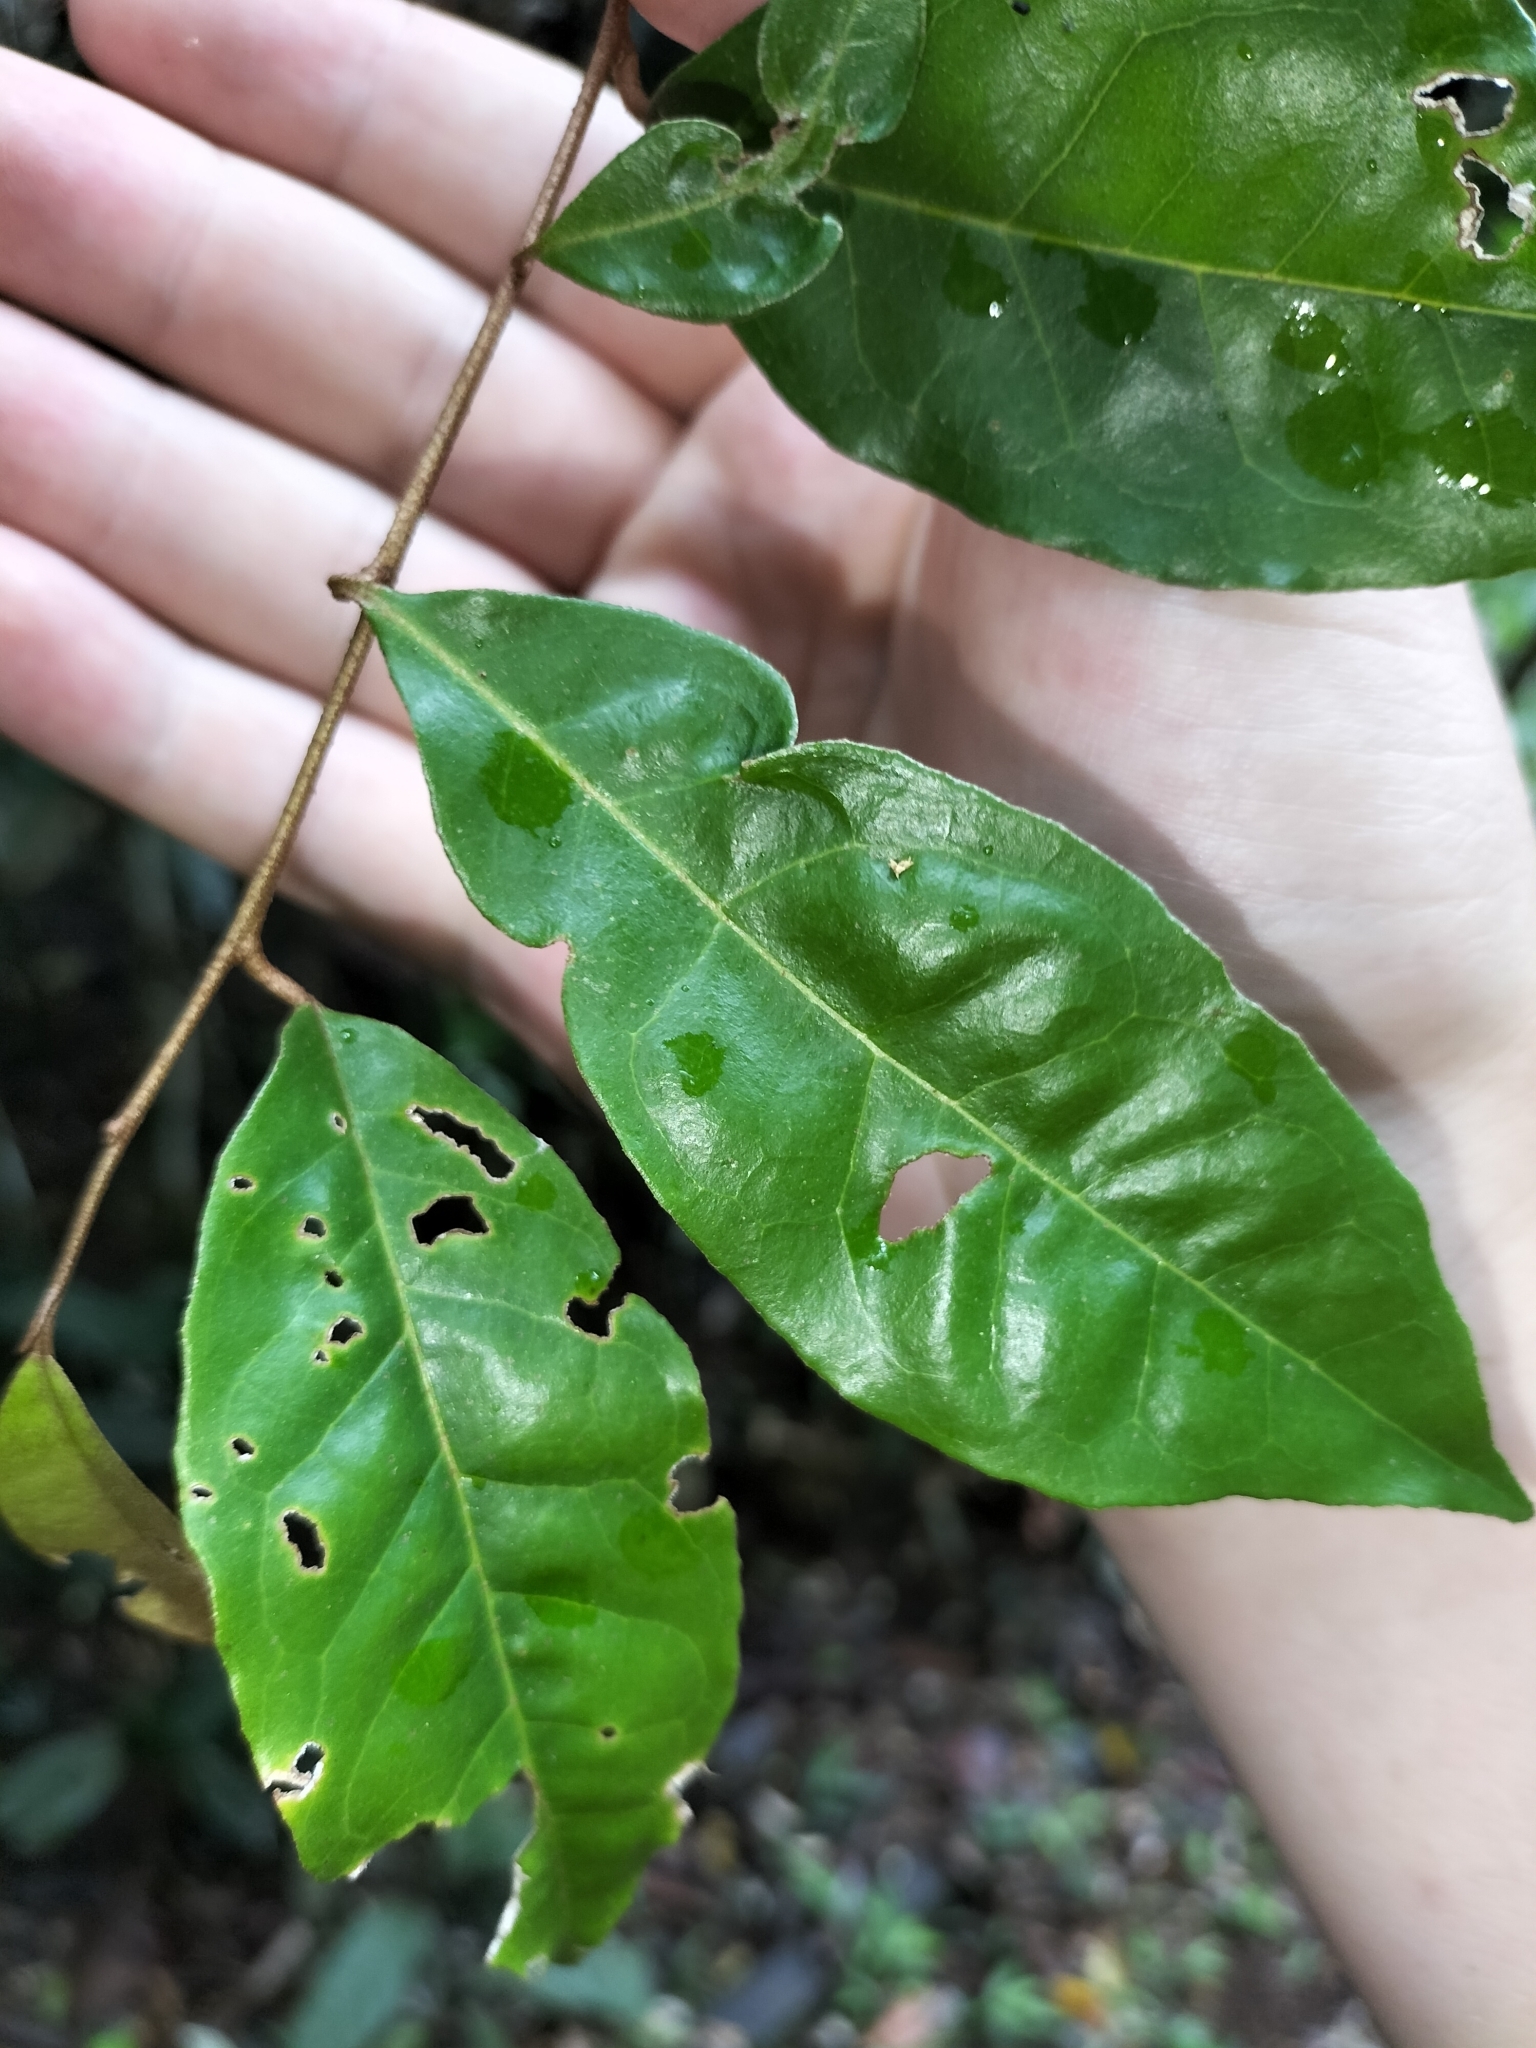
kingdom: Plantae
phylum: Tracheophyta
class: Magnoliopsida
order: Rosales
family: Elaeagnaceae
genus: Elaeagnus
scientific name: Elaeagnus triflora
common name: Millaa millaa-vine
